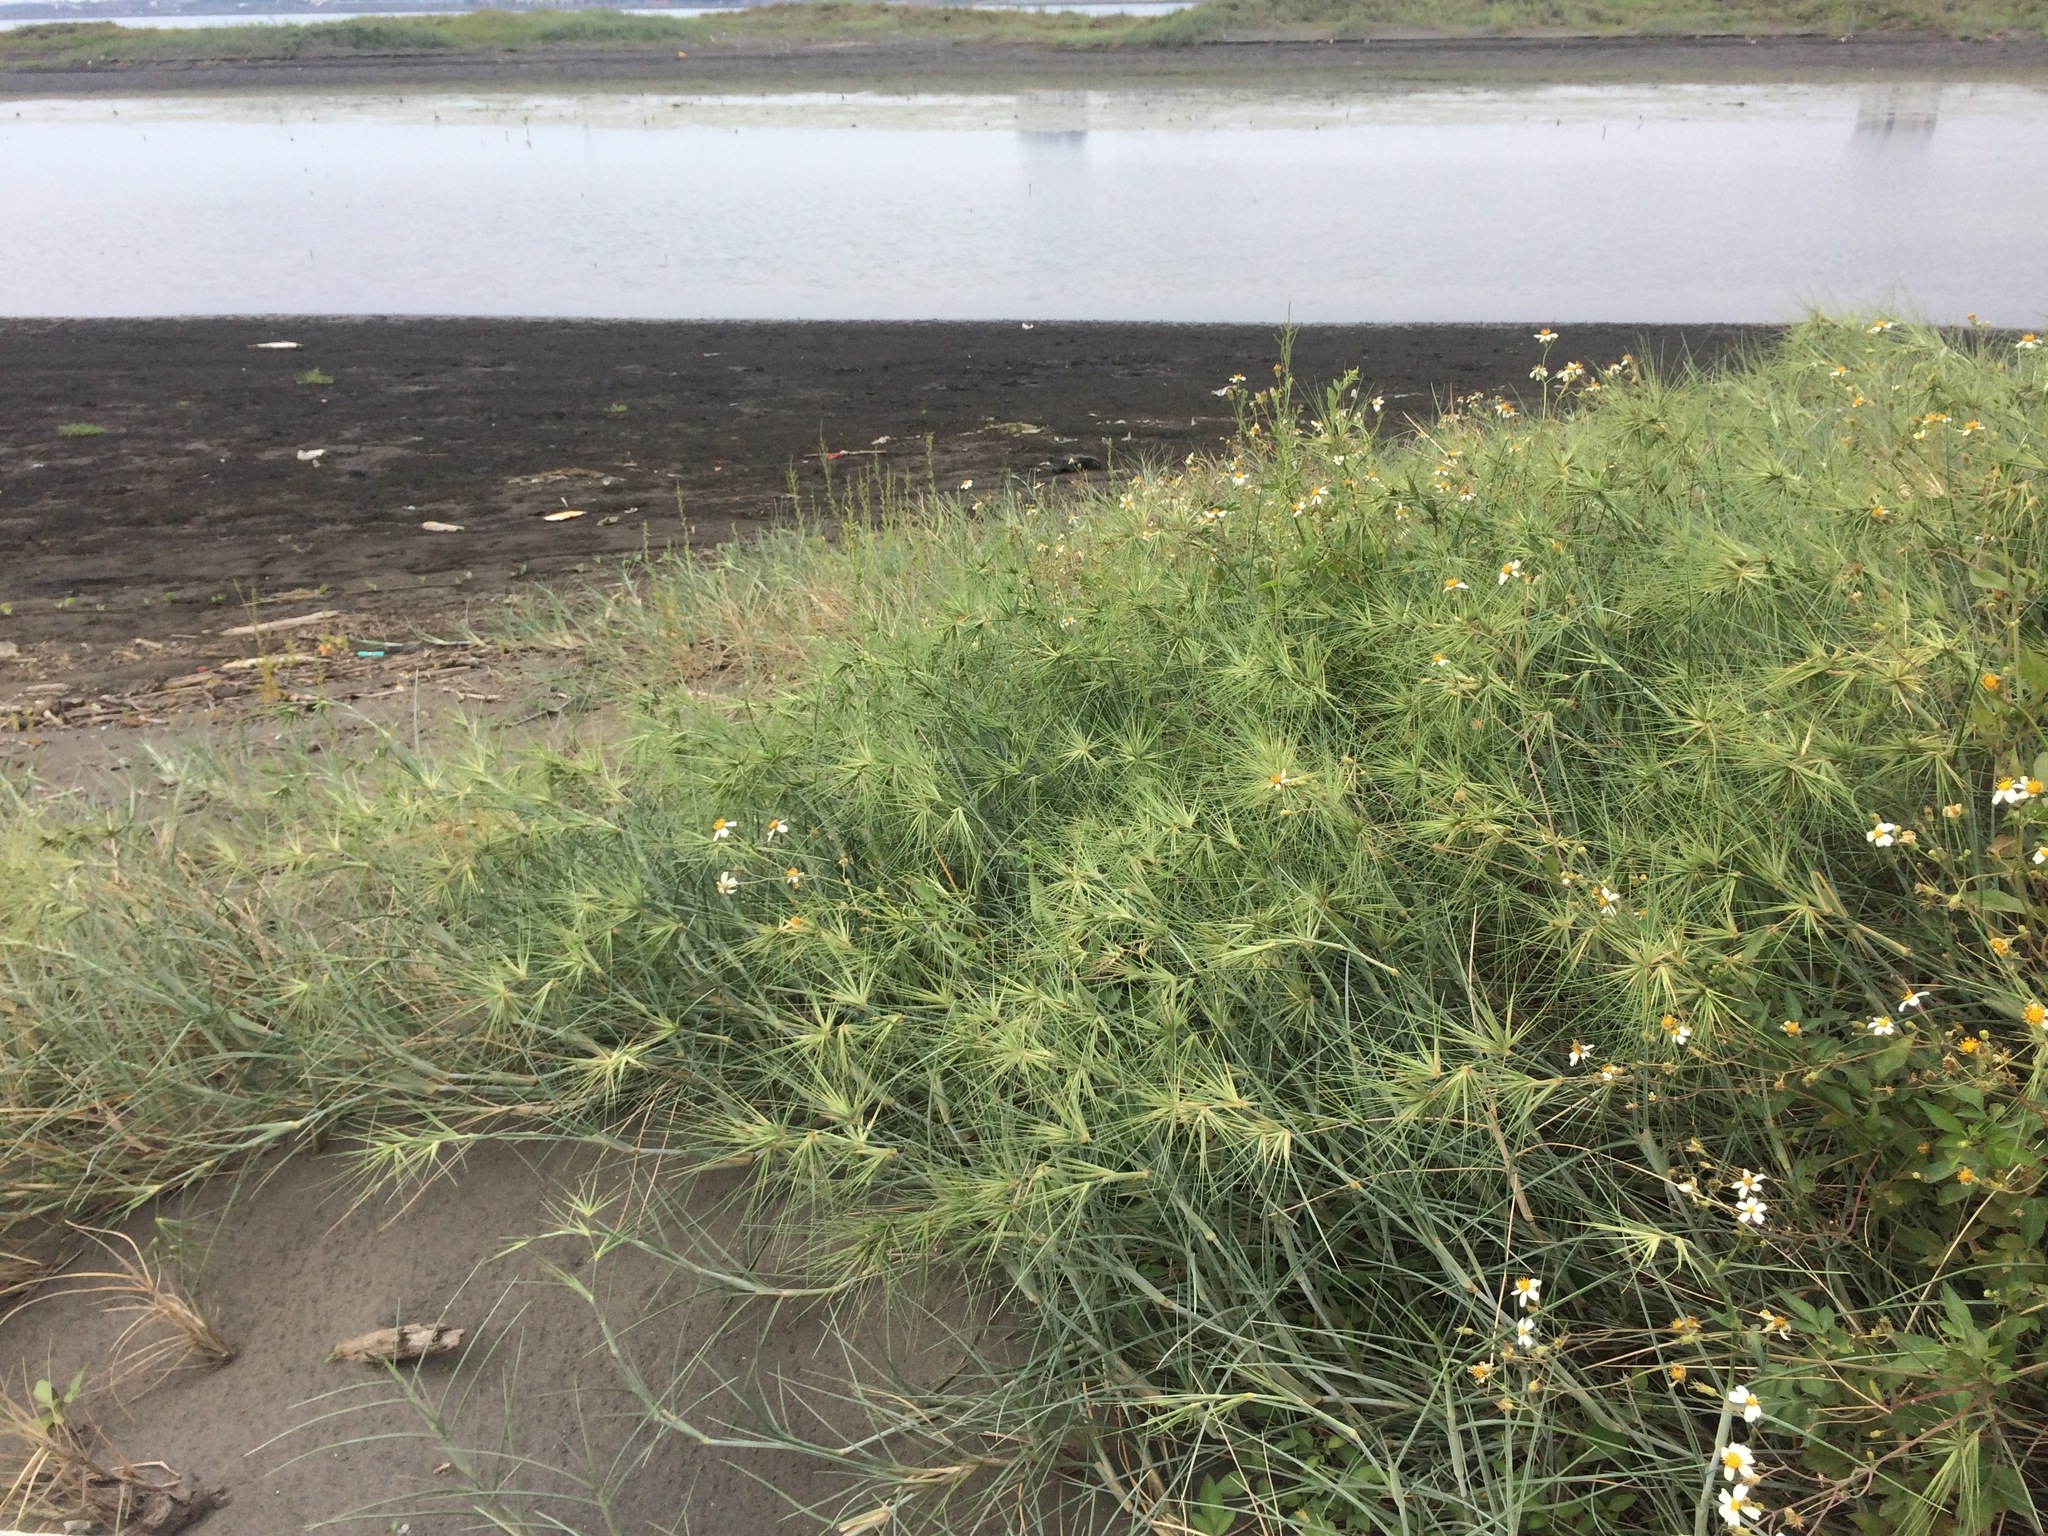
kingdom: Plantae
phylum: Tracheophyta
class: Liliopsida
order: Poales
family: Poaceae
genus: Spinifex
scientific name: Spinifex littoreus
